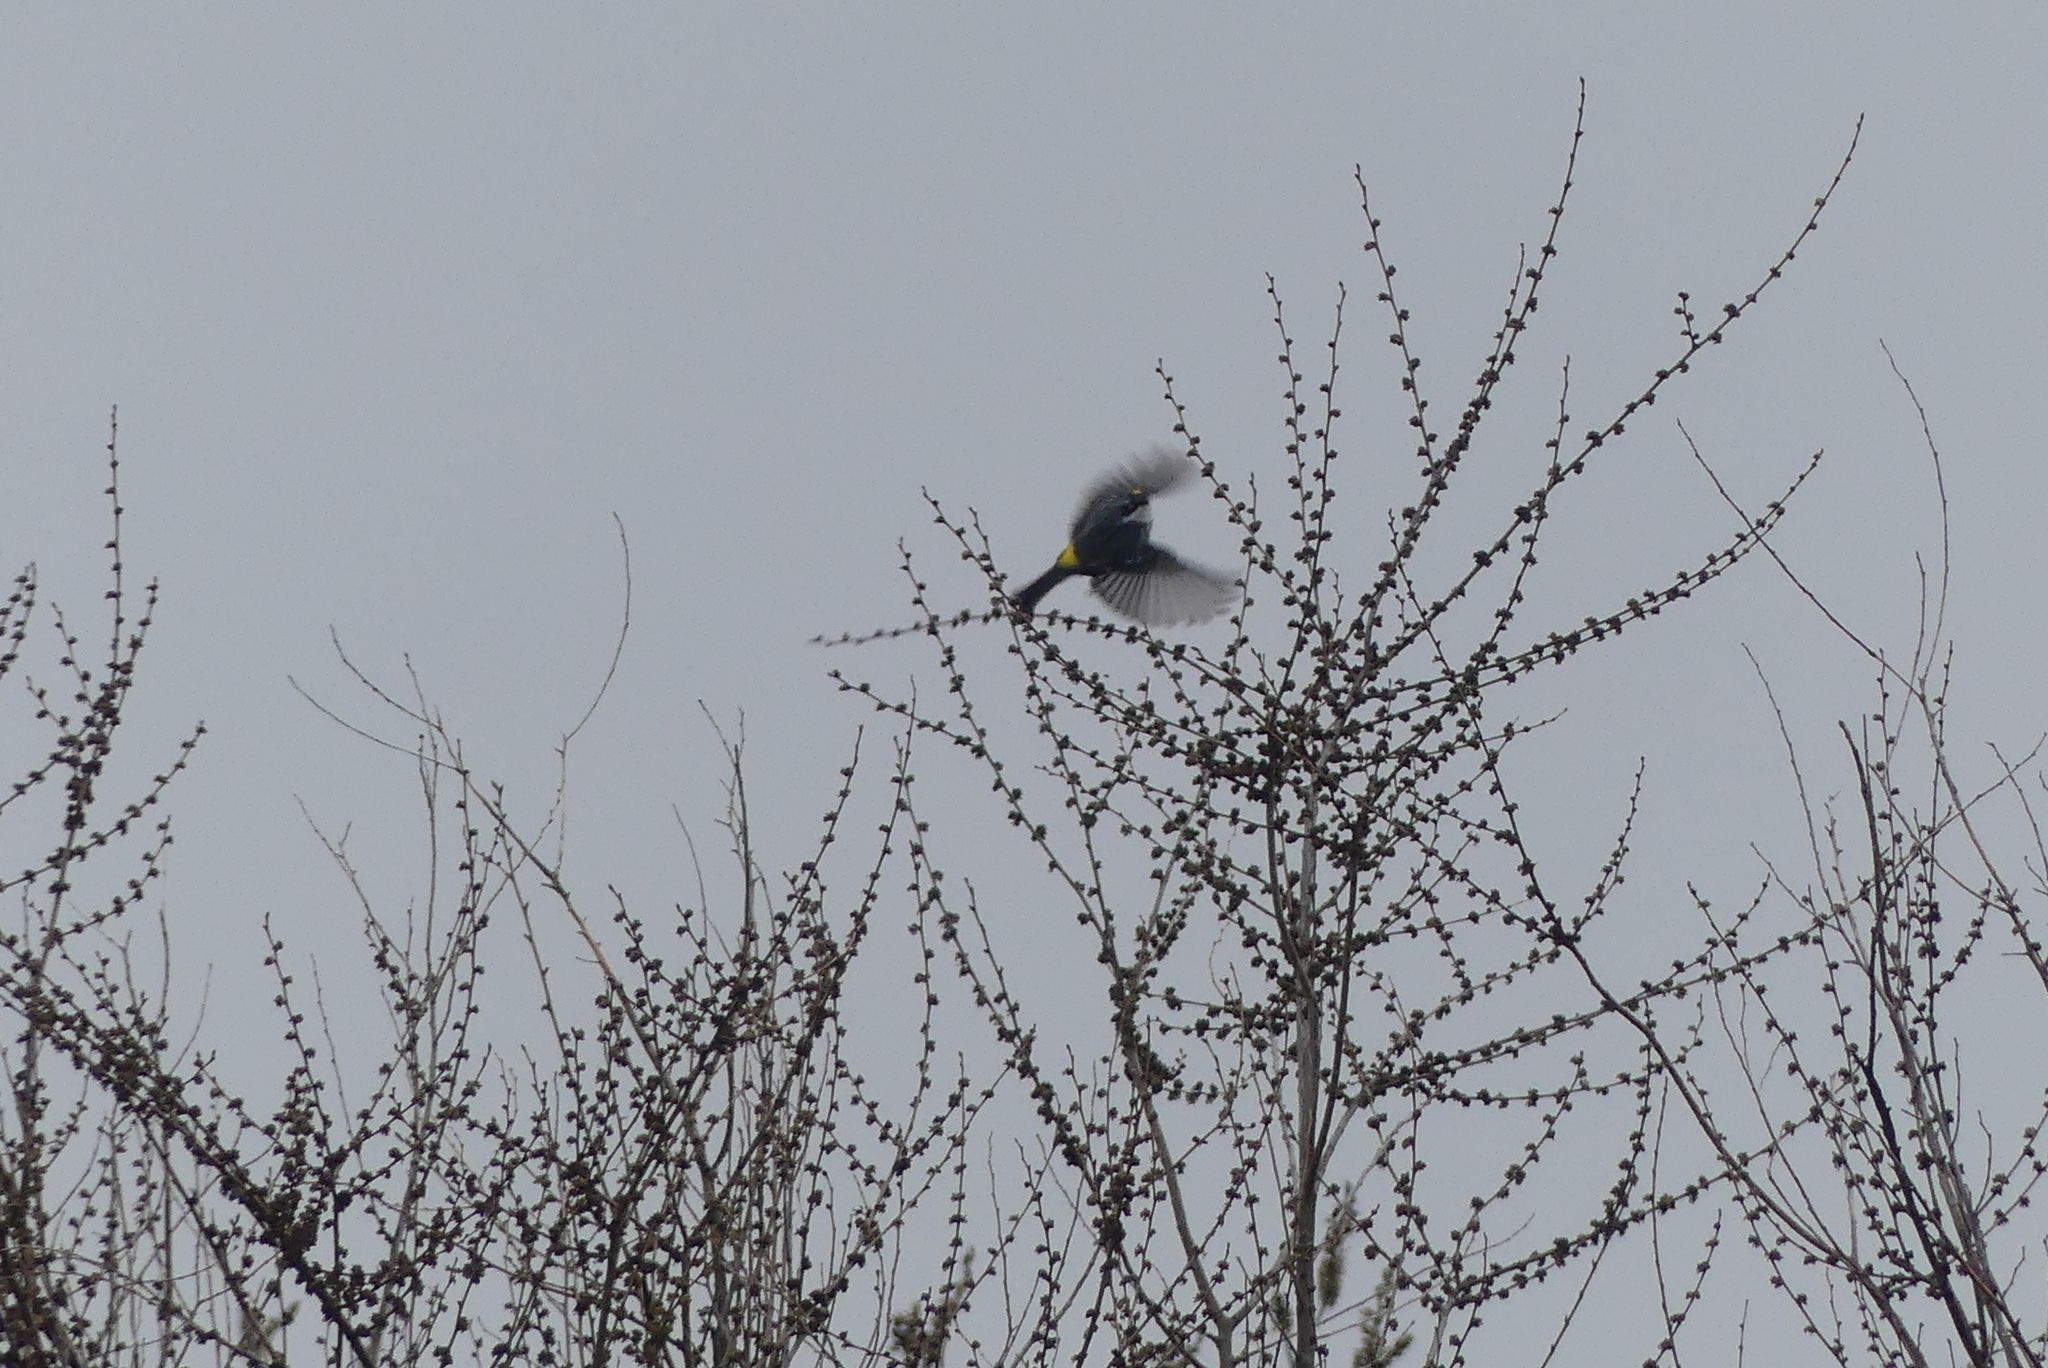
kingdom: Animalia
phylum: Chordata
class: Aves
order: Passeriformes
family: Parulidae
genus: Setophaga
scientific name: Setophaga coronata
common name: Myrtle warbler
